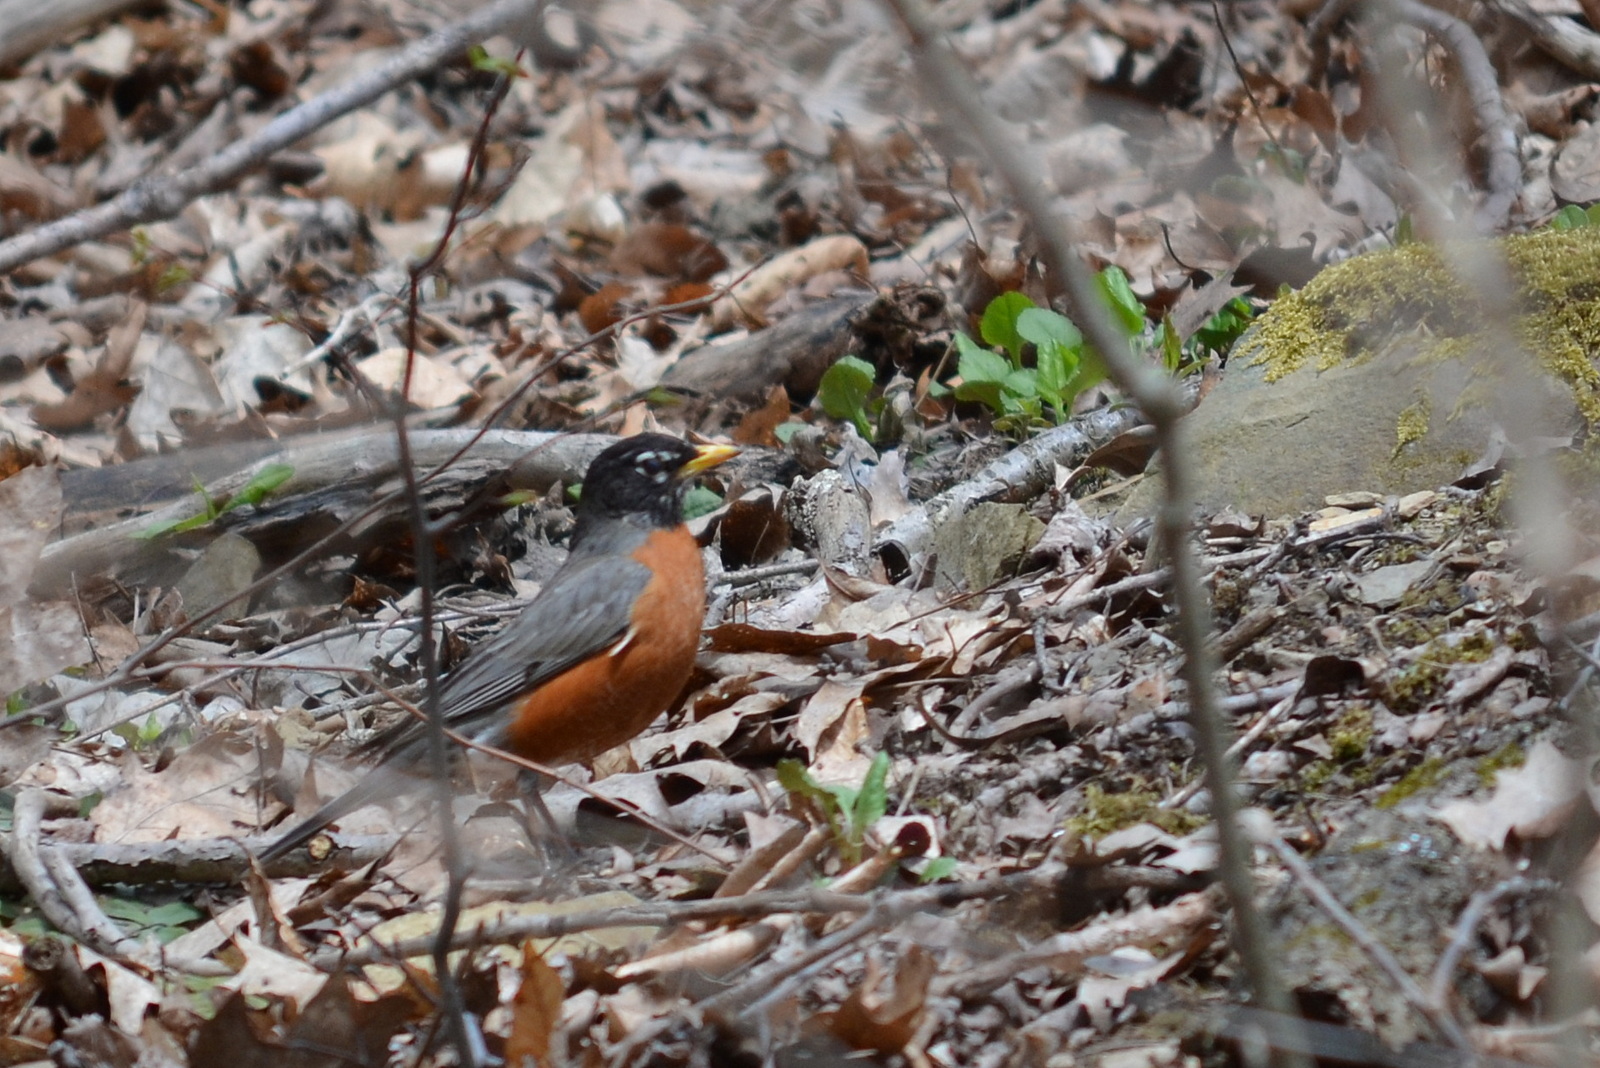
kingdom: Animalia
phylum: Chordata
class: Aves
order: Passeriformes
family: Turdidae
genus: Turdus
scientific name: Turdus migratorius
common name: American robin
